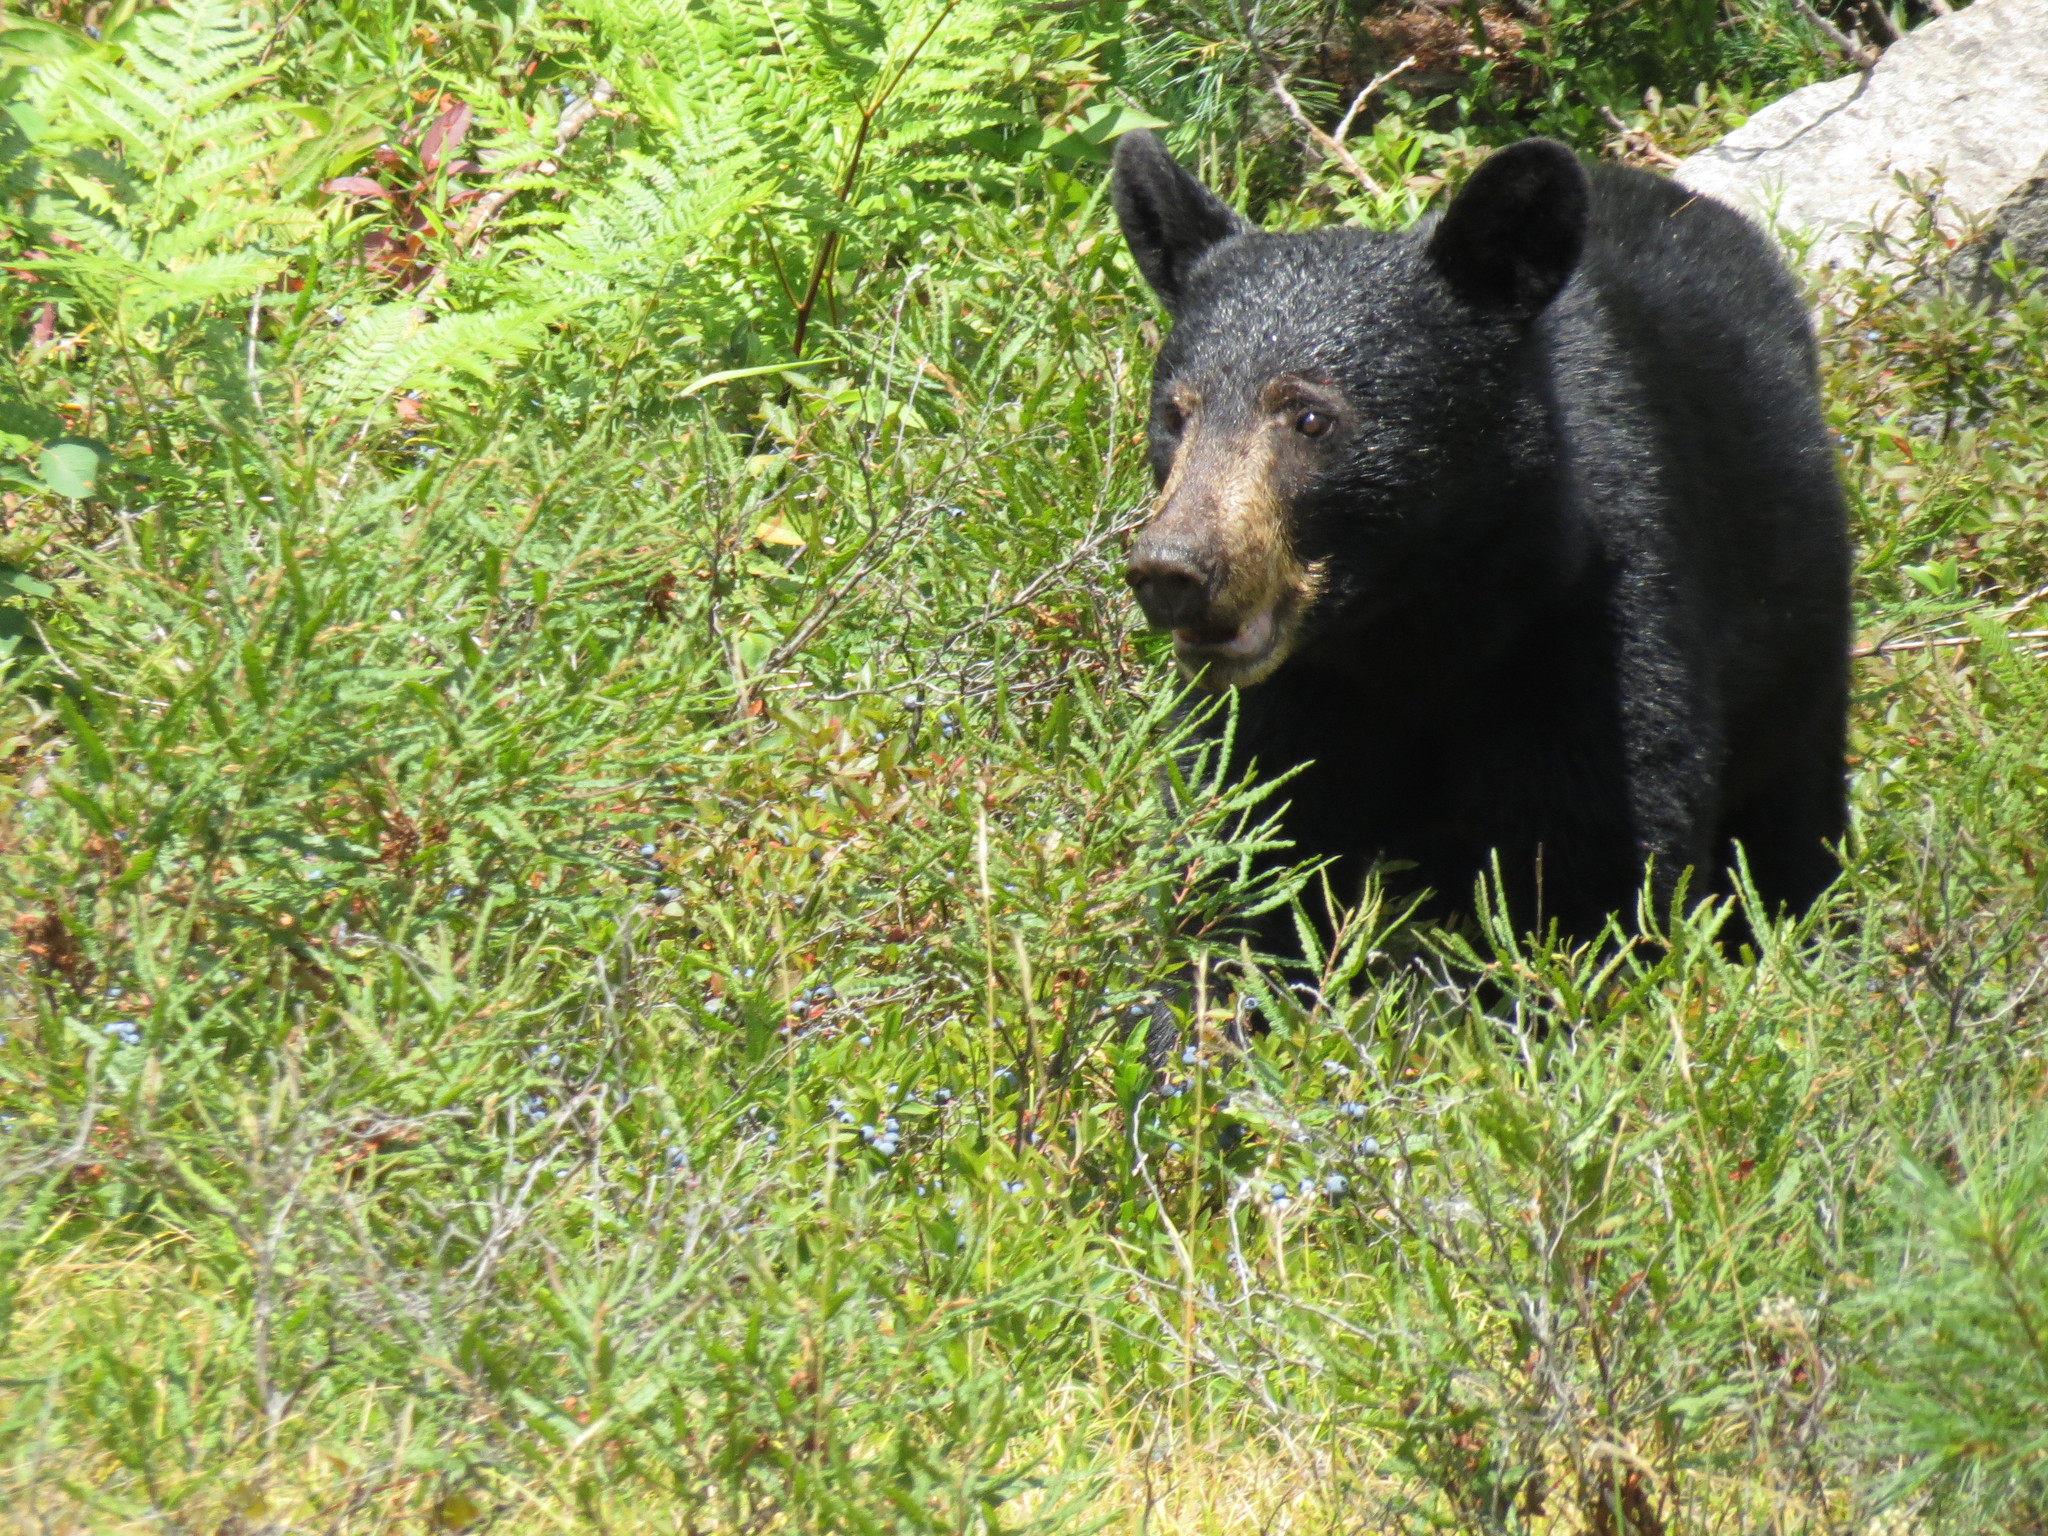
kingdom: Animalia
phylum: Chordata
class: Mammalia
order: Carnivora
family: Ursidae
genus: Ursus
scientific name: Ursus americanus
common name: American black bear
